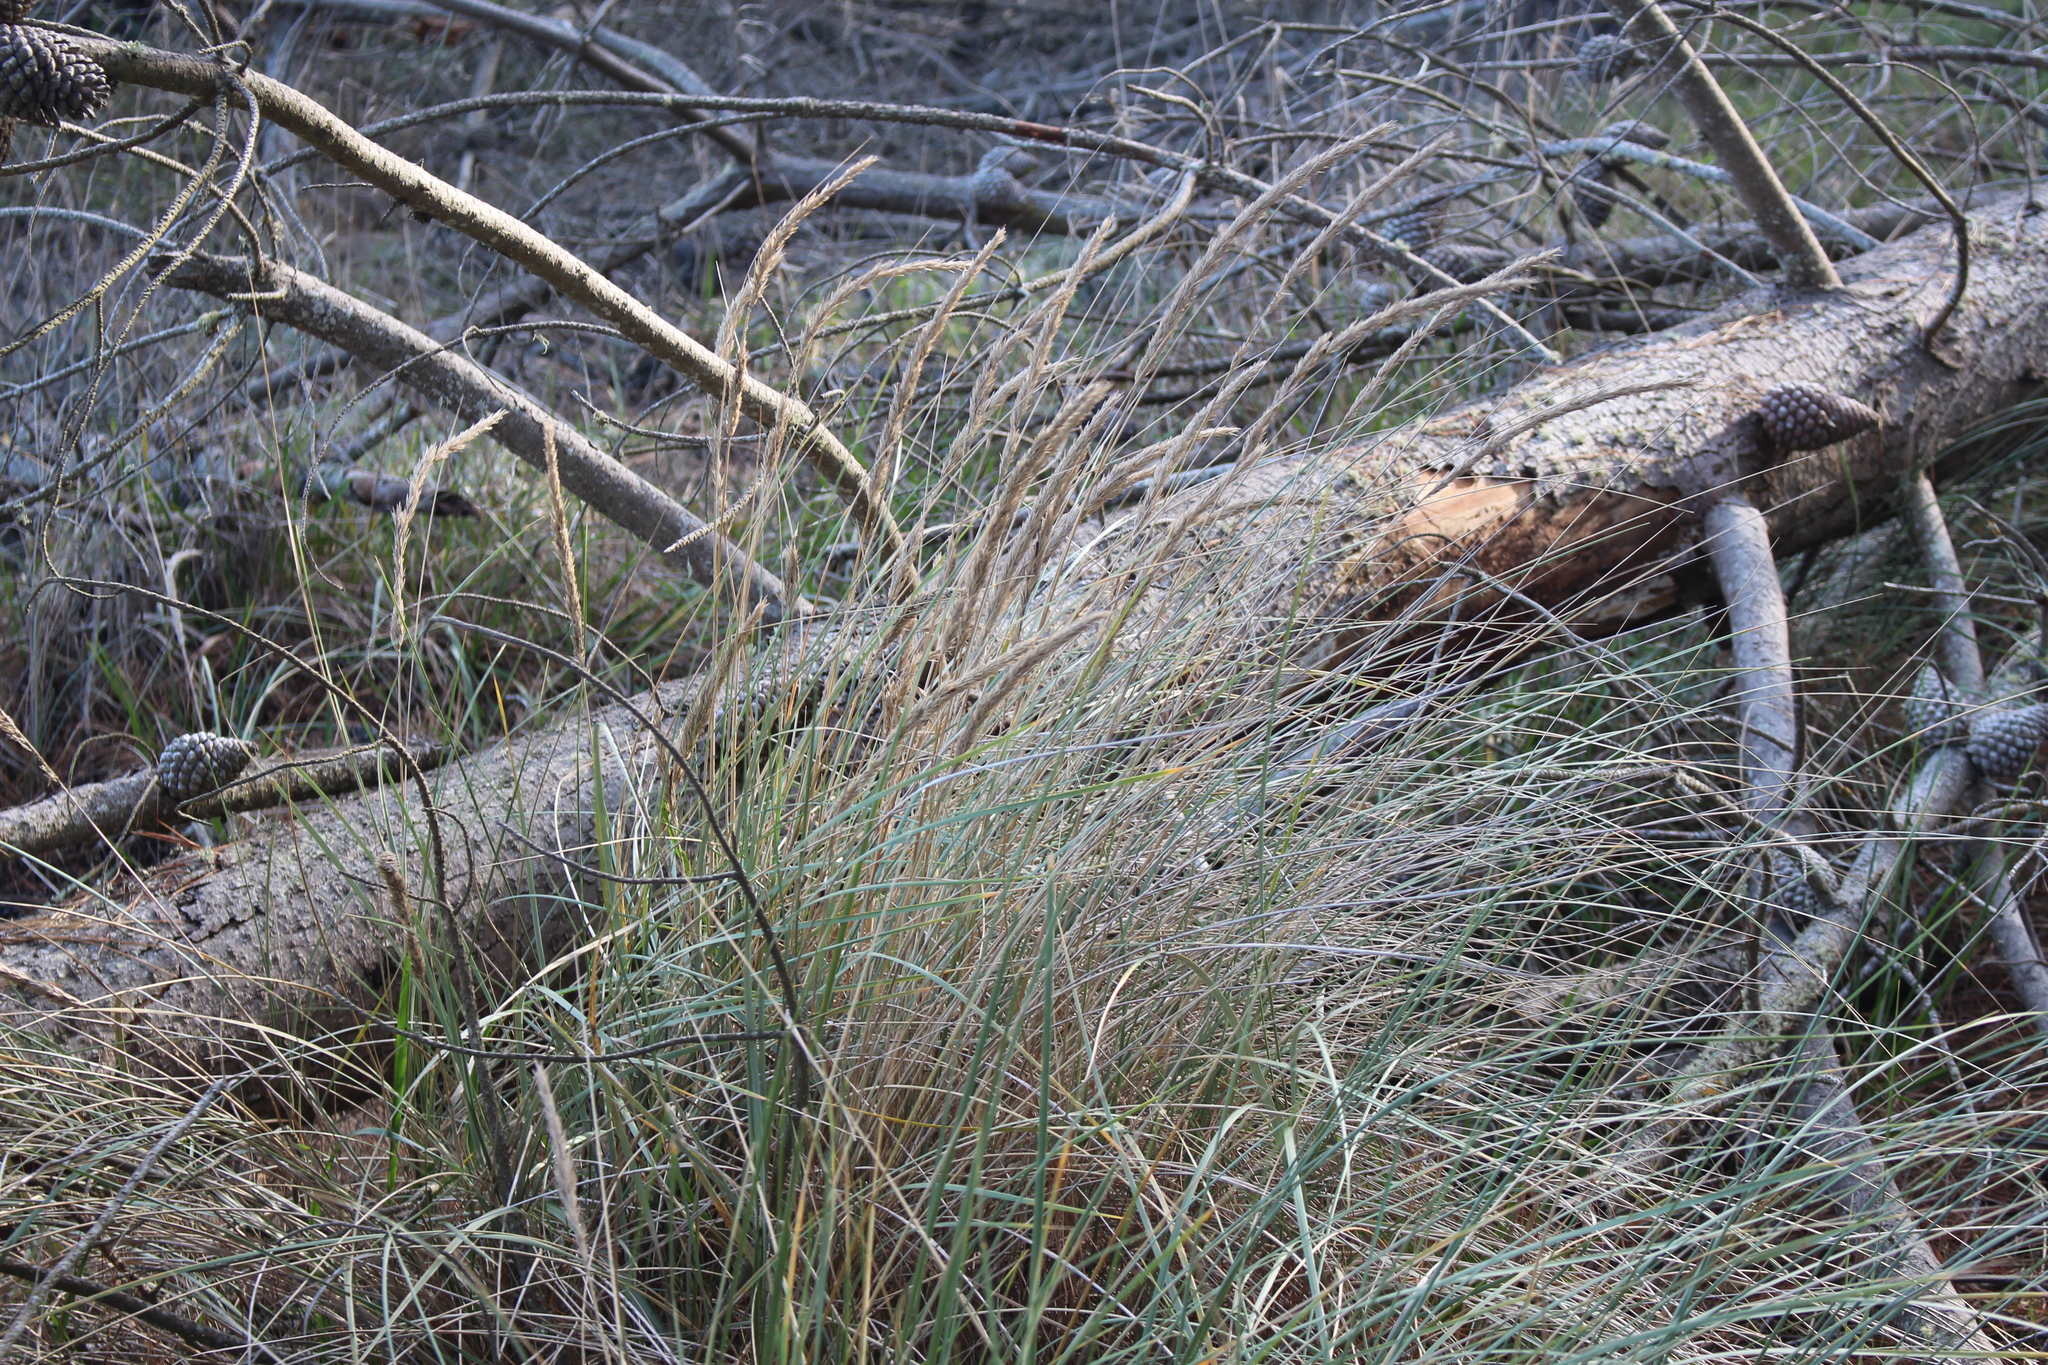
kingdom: Plantae
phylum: Tracheophyta
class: Liliopsida
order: Poales
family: Poaceae
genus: Calamagrostis
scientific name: Calamagrostis arenaria
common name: European beachgrass
